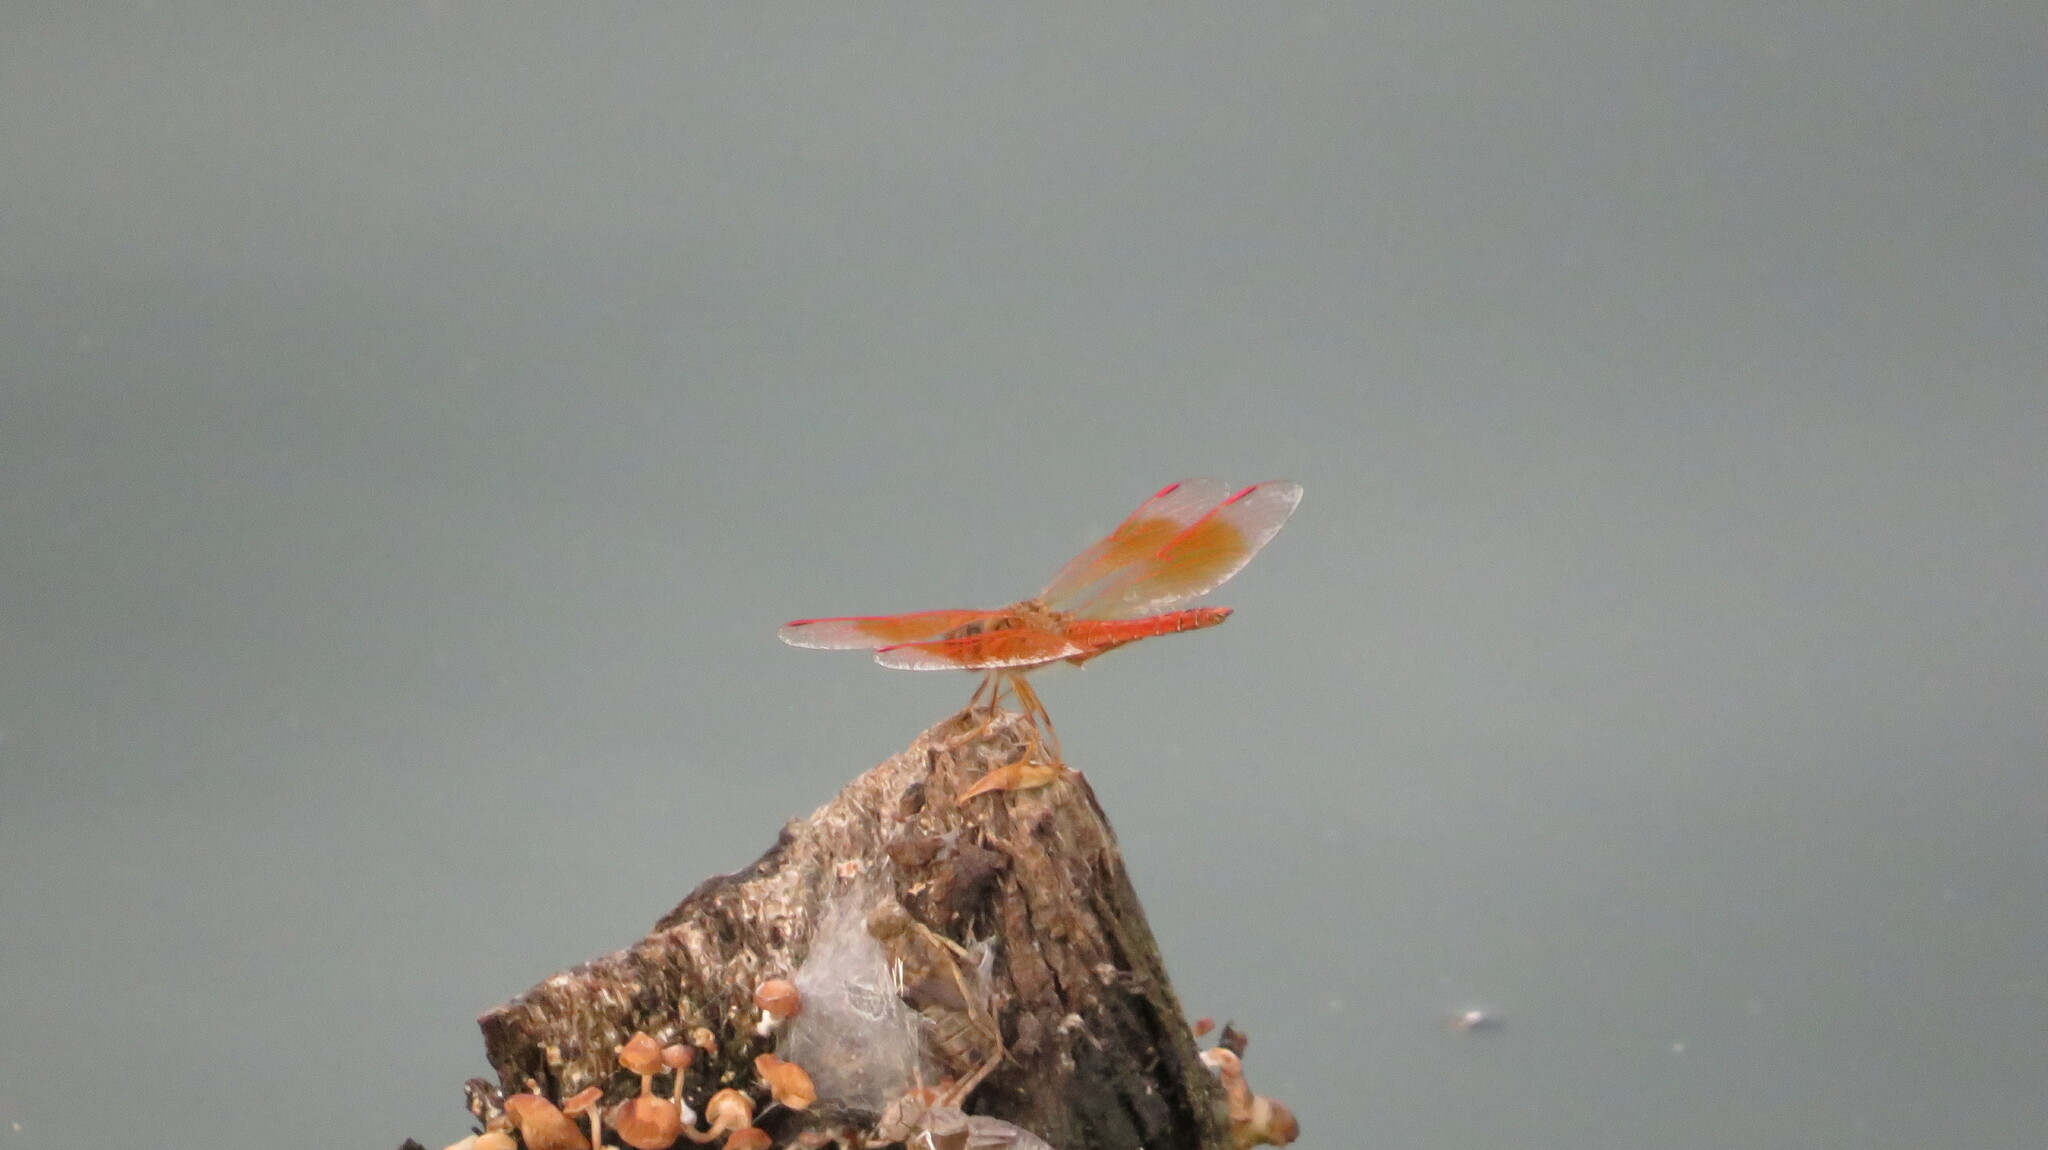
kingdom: Animalia
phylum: Arthropoda
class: Insecta
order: Odonata
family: Libellulidae
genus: Brachythemis
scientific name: Brachythemis contaminata
